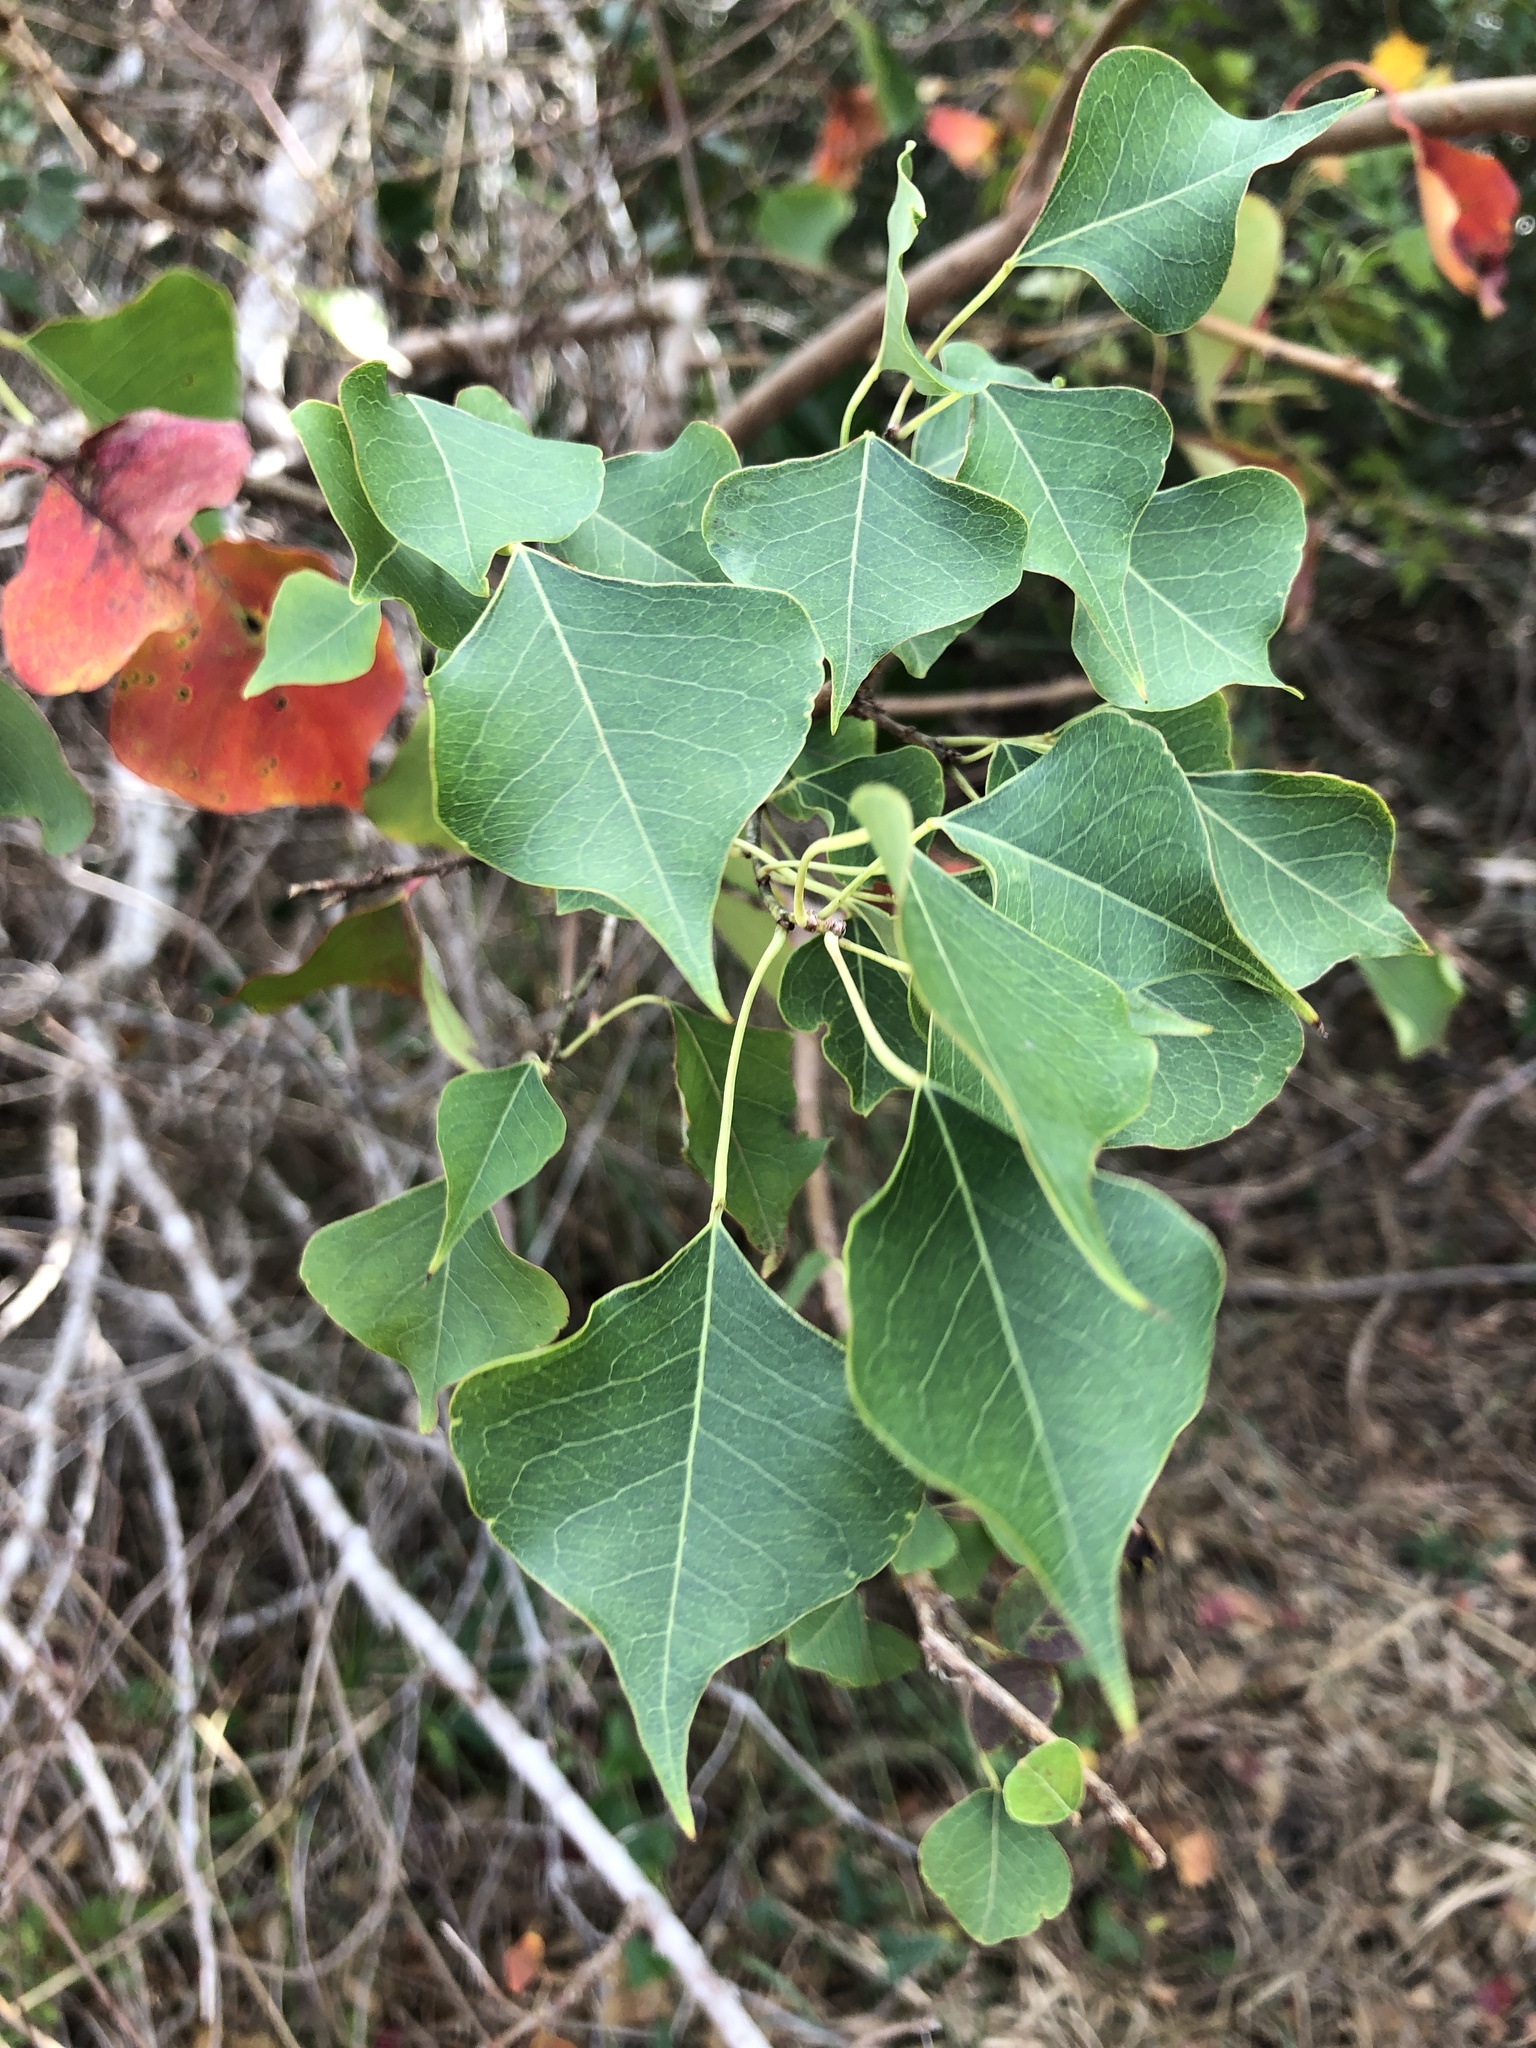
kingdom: Plantae
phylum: Tracheophyta
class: Magnoliopsida
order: Malpighiales
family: Euphorbiaceae
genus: Triadica
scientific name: Triadica sebifera
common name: Chinese tallow
